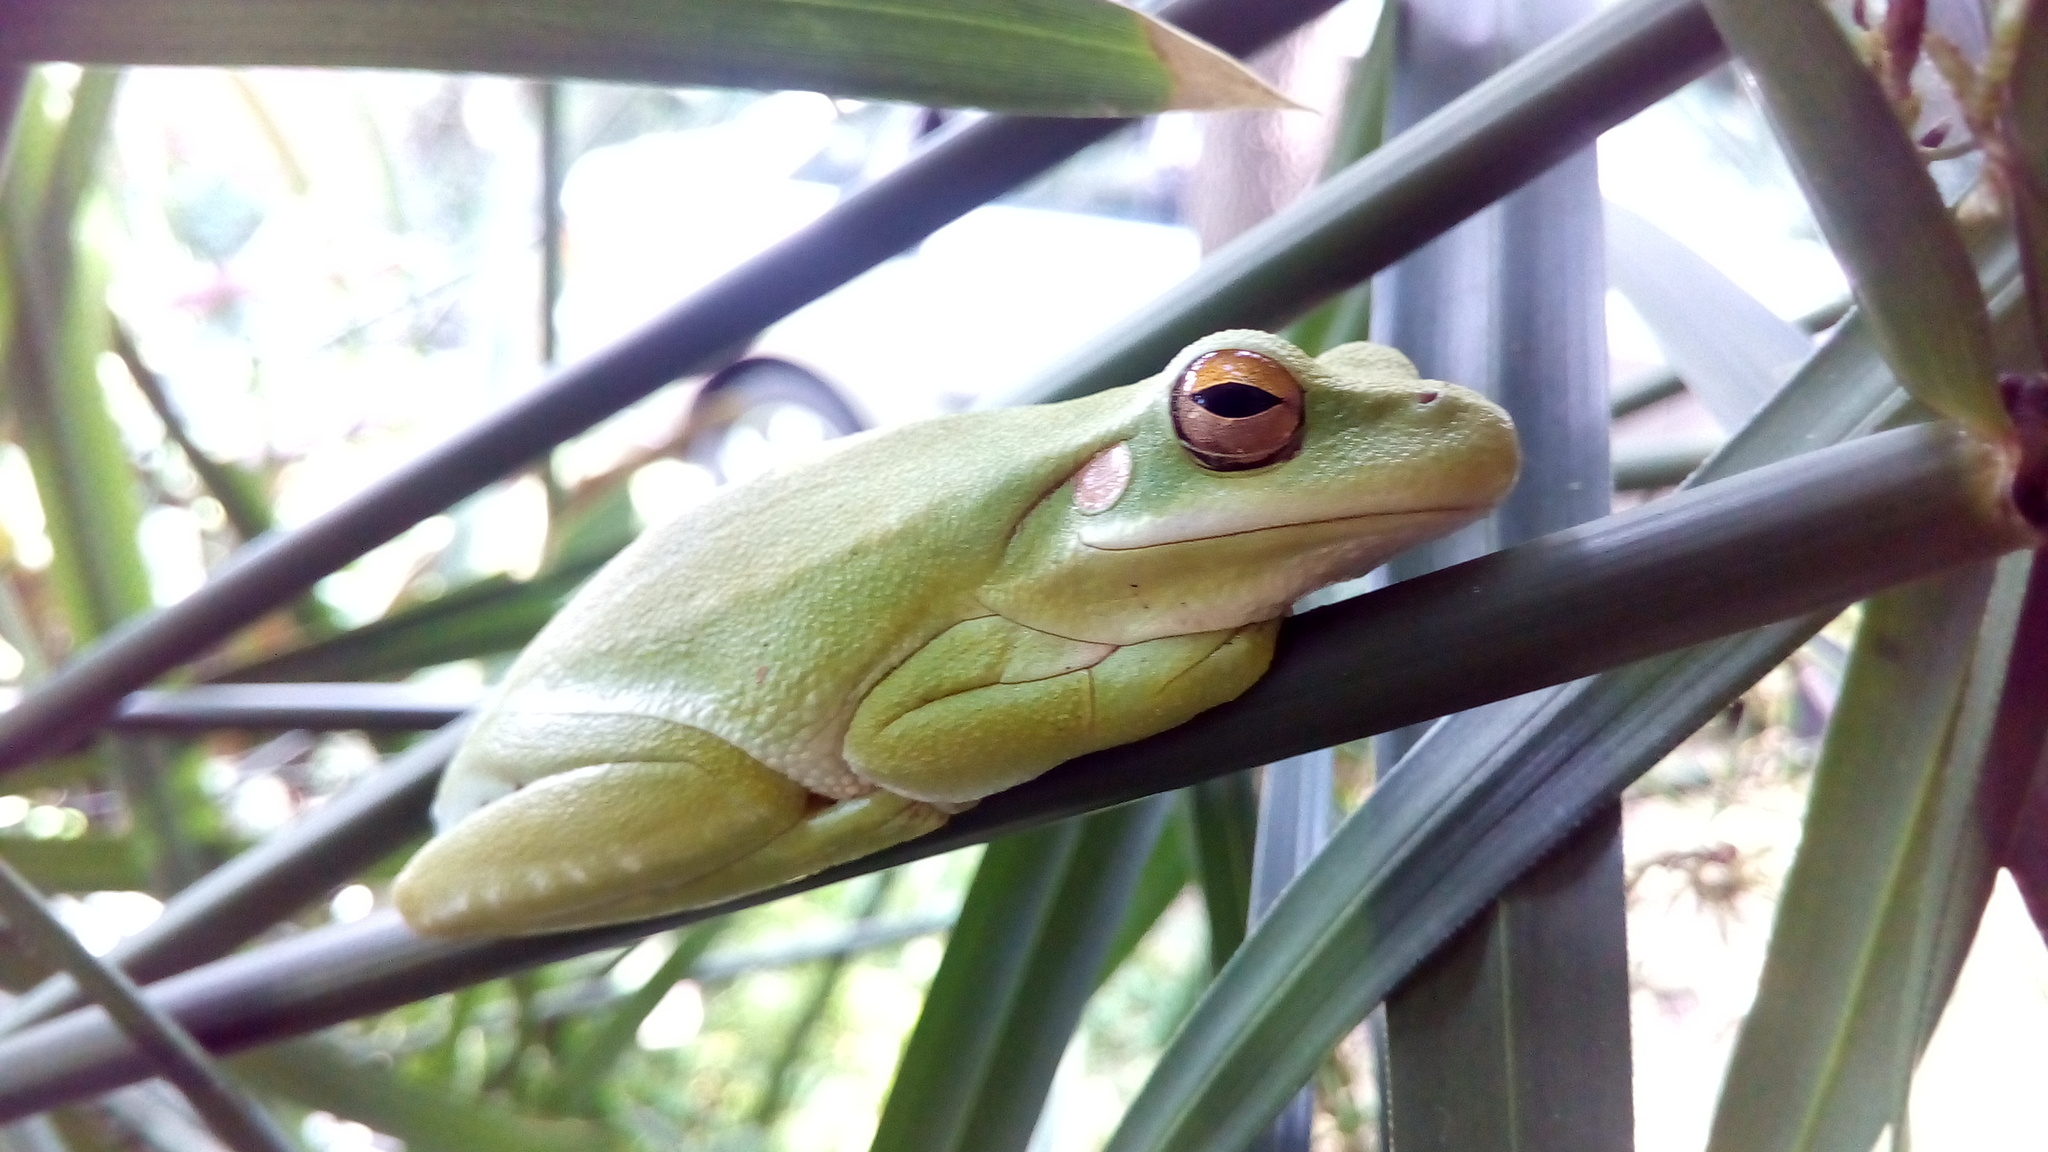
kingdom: Animalia
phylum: Chordata
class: Amphibia
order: Anura
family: Hylidae
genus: Boana
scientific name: Boana pulchella
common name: Montevideo treefrog
